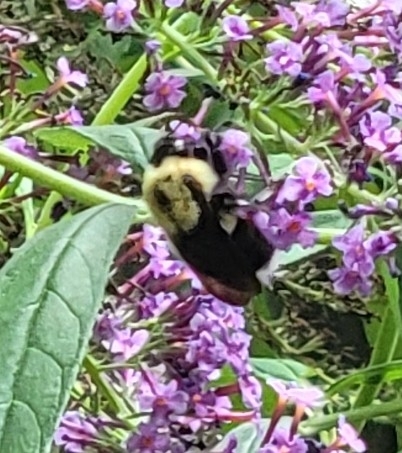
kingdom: Animalia
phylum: Arthropoda
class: Insecta
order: Hymenoptera
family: Apidae
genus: Bombus
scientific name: Bombus griseocollis
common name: Brown-belted bumble bee
